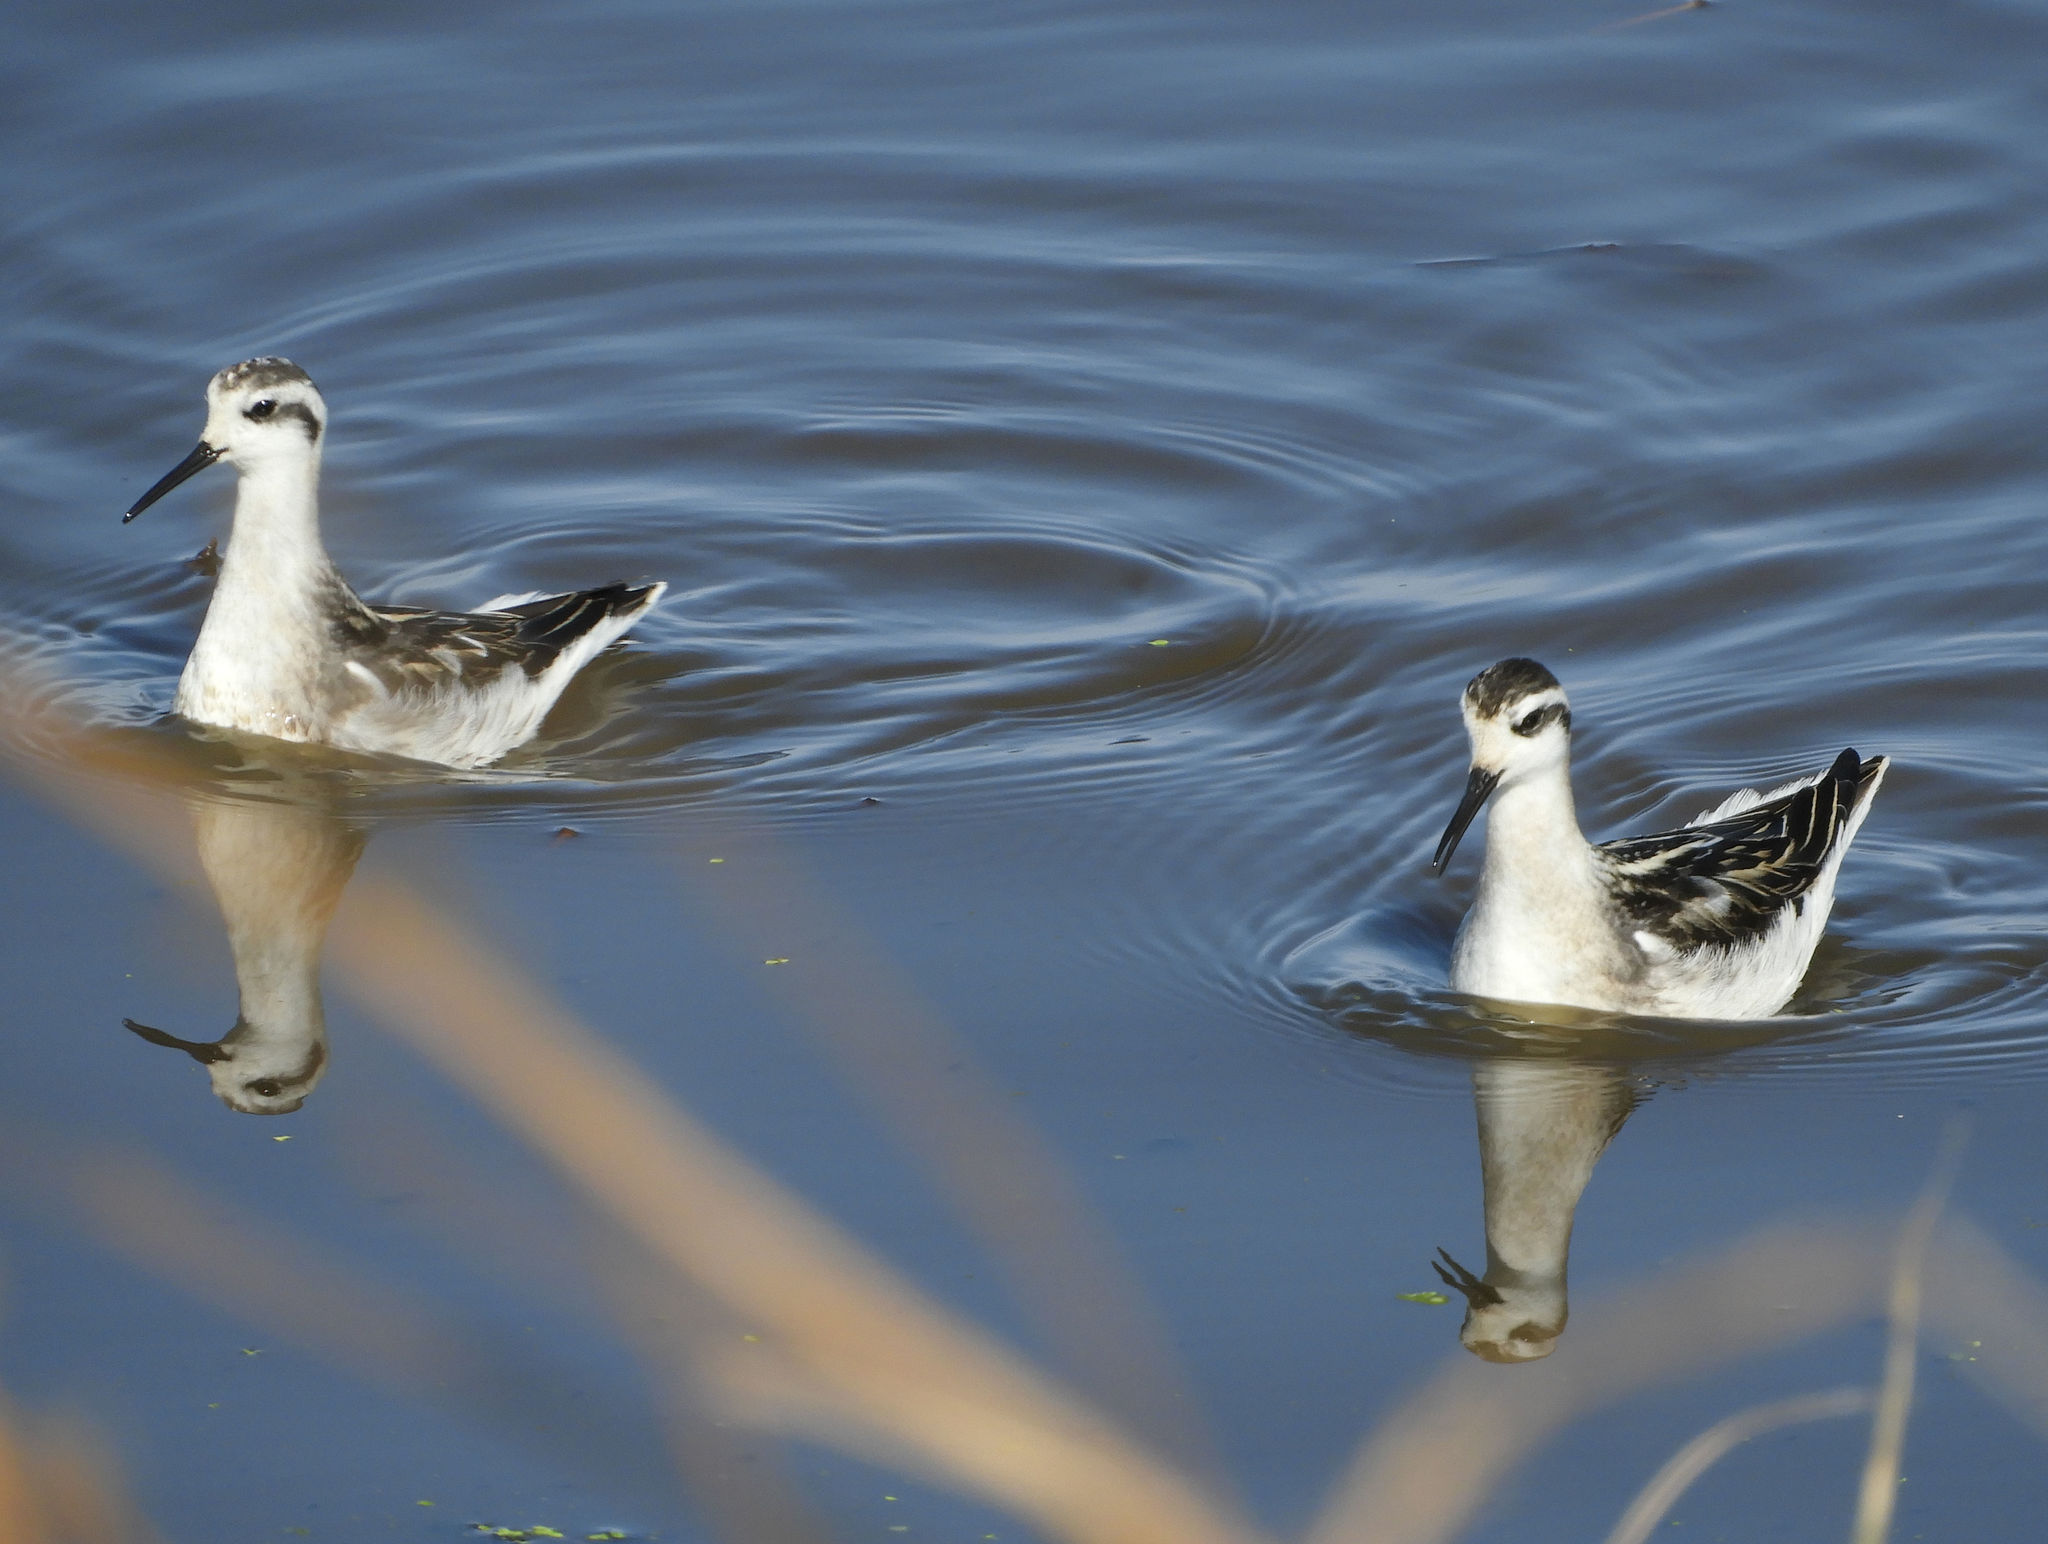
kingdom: Animalia
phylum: Chordata
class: Aves
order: Charadriiformes
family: Scolopacidae
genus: Phalaropus
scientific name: Phalaropus lobatus
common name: Red-necked phalarope
